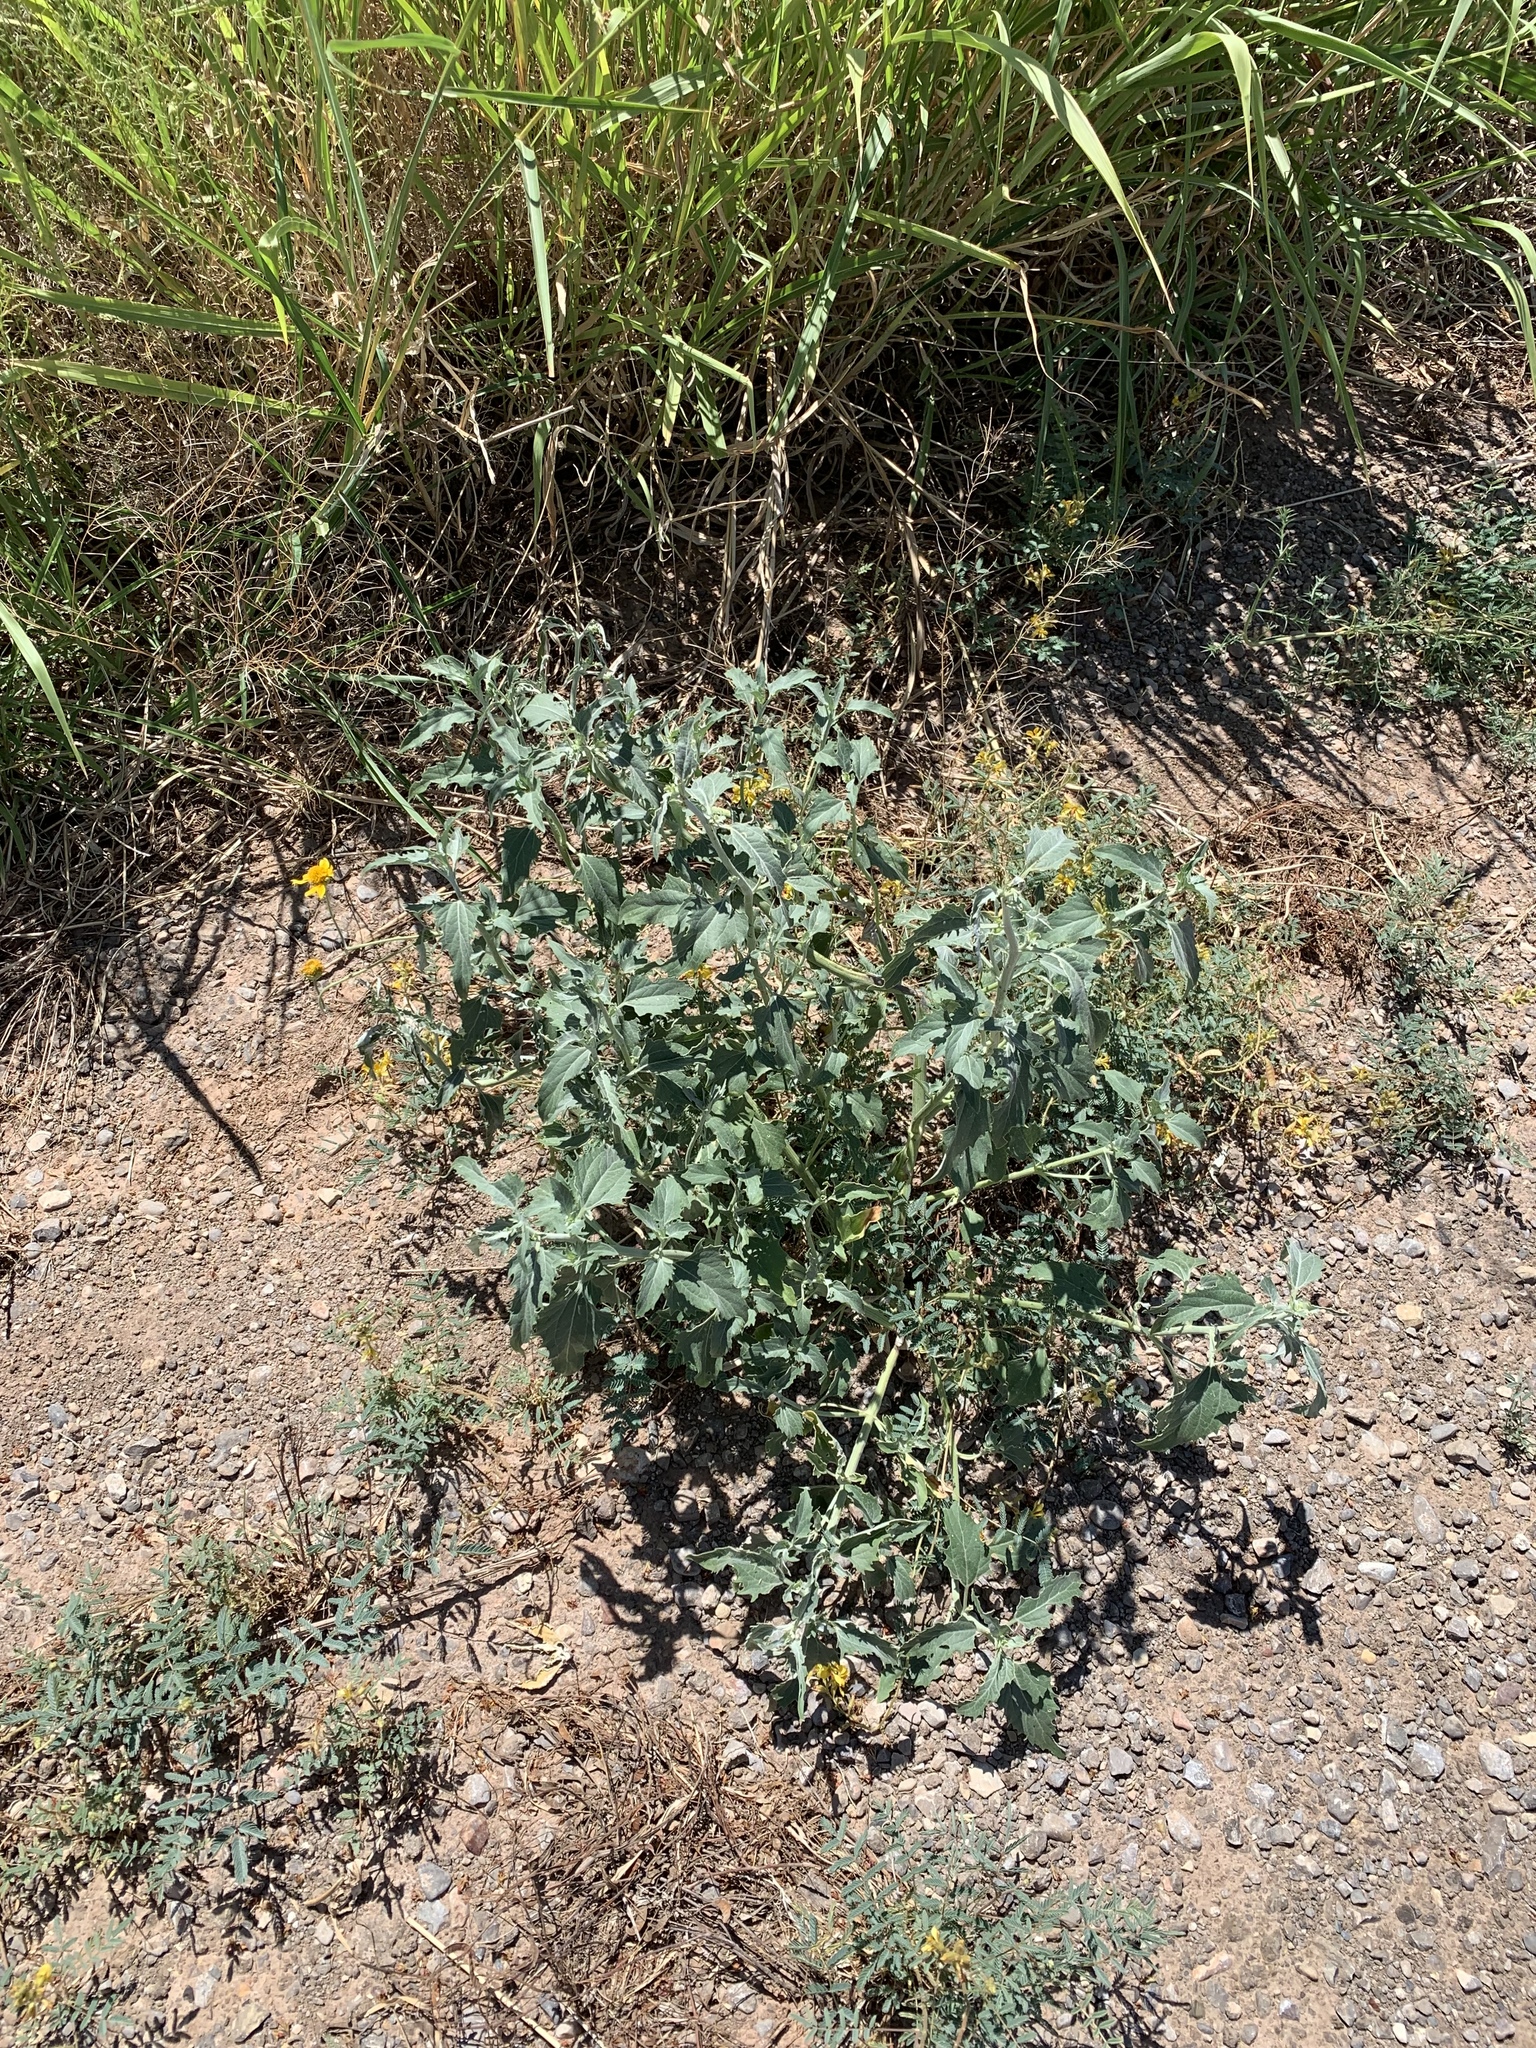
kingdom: Plantae
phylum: Tracheophyta
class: Magnoliopsida
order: Asterales
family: Asteraceae
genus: Verbesina
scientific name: Verbesina encelioides
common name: Golden crownbeard
